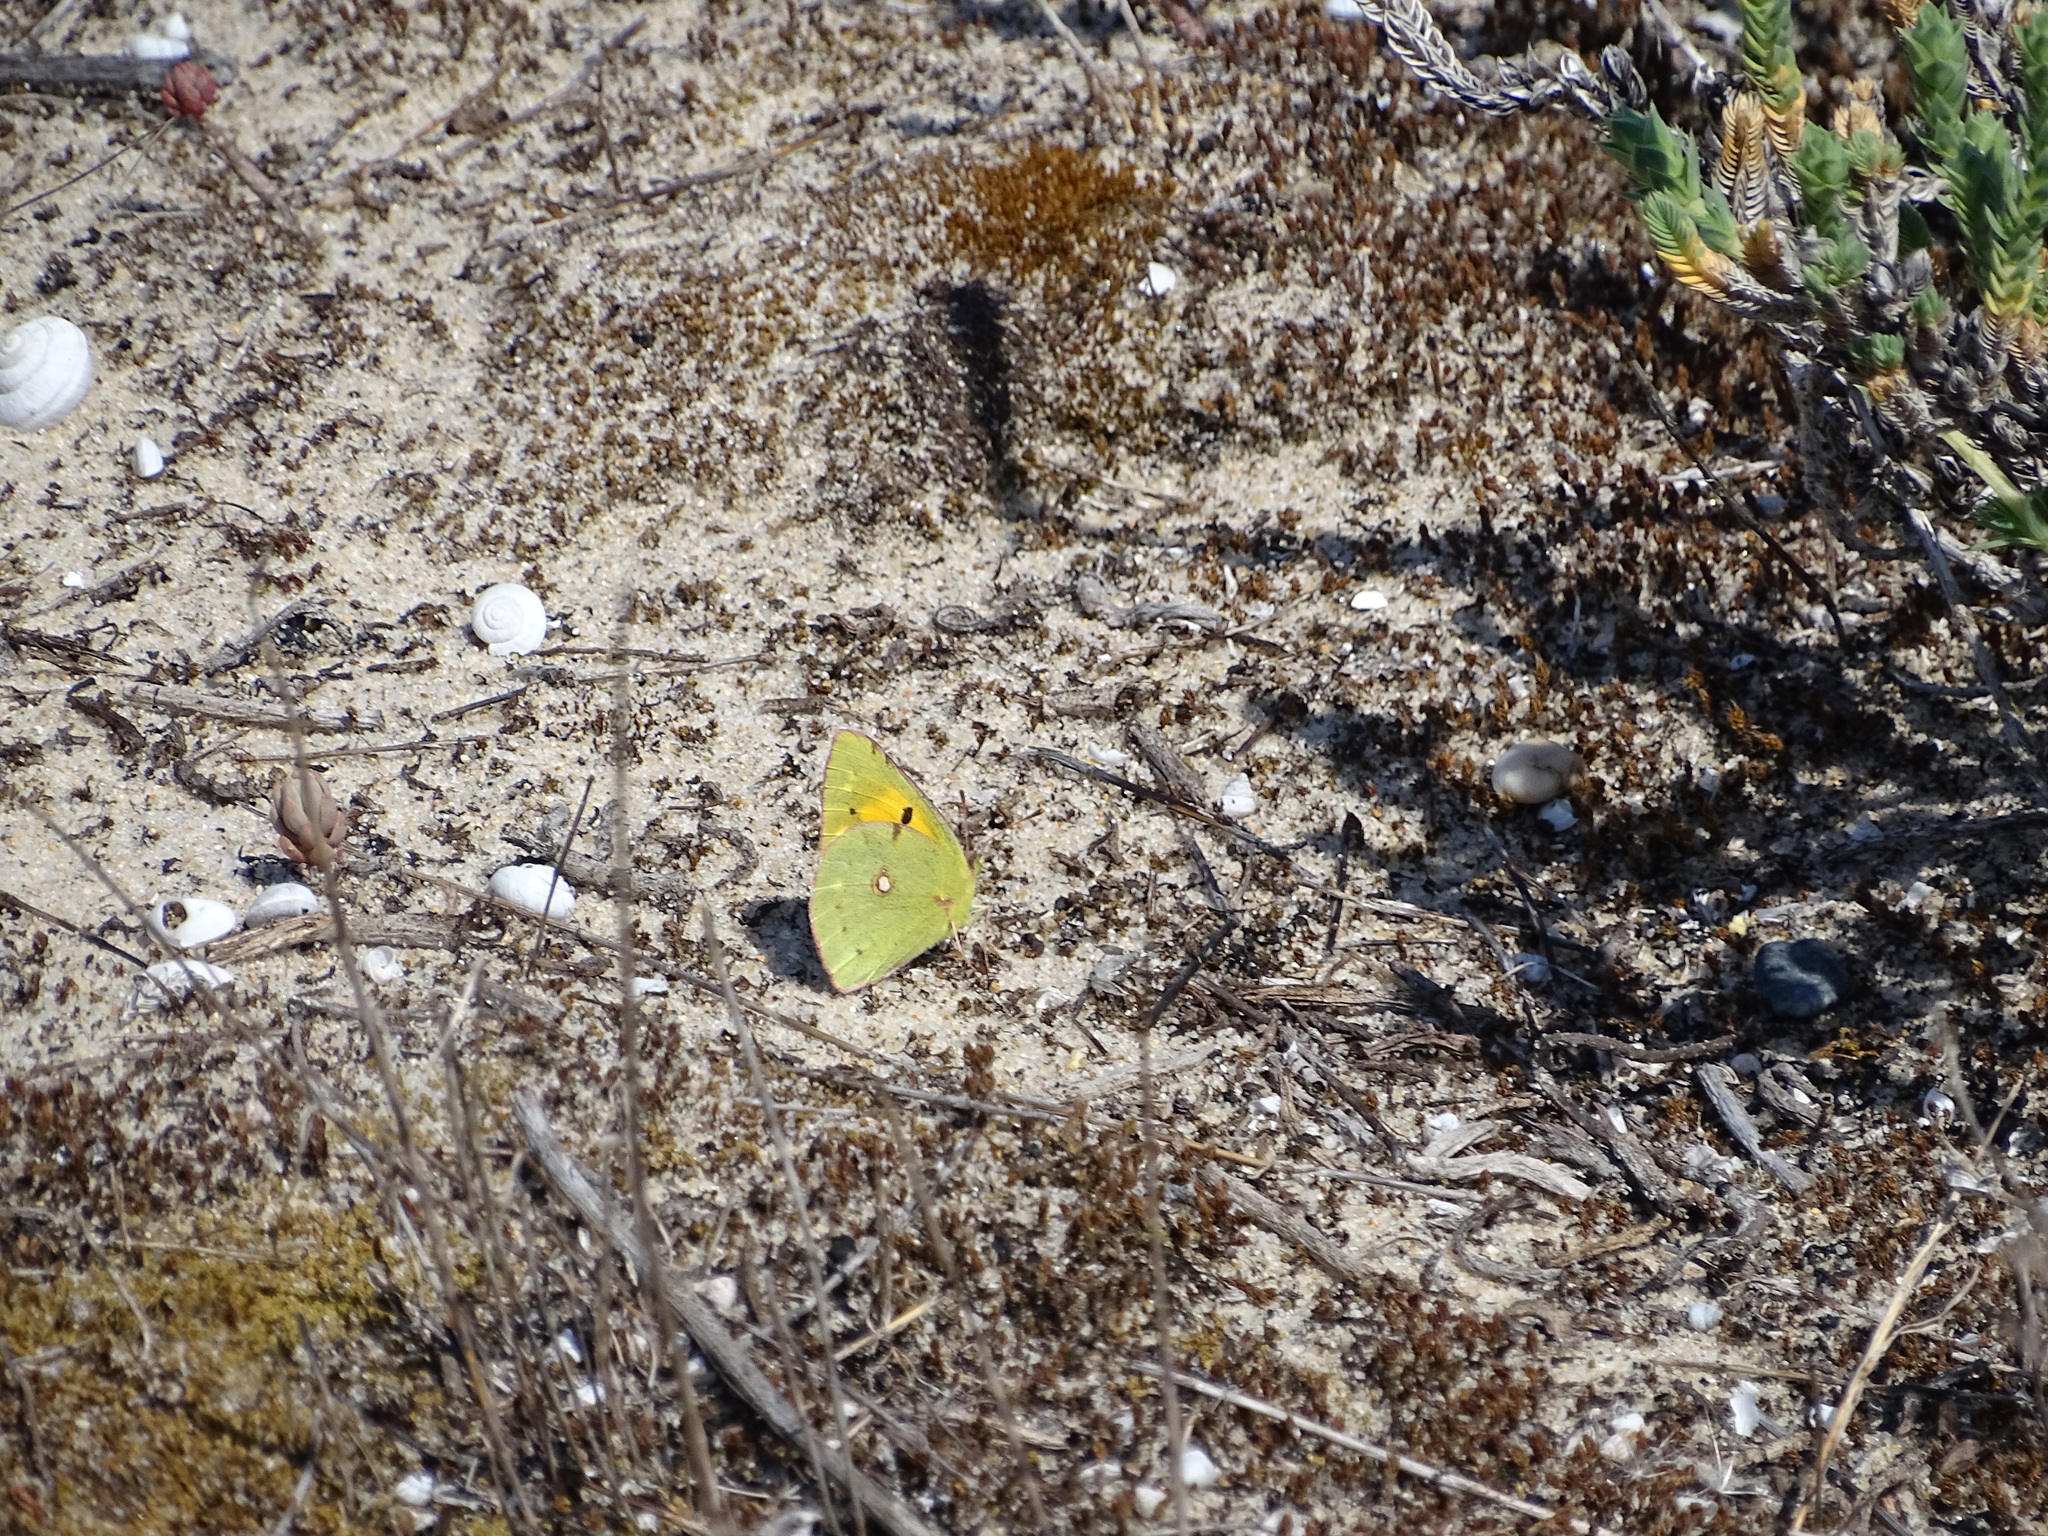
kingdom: Animalia
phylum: Arthropoda
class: Insecta
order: Lepidoptera
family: Pieridae
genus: Colias
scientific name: Colias croceus
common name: Clouded yellow
